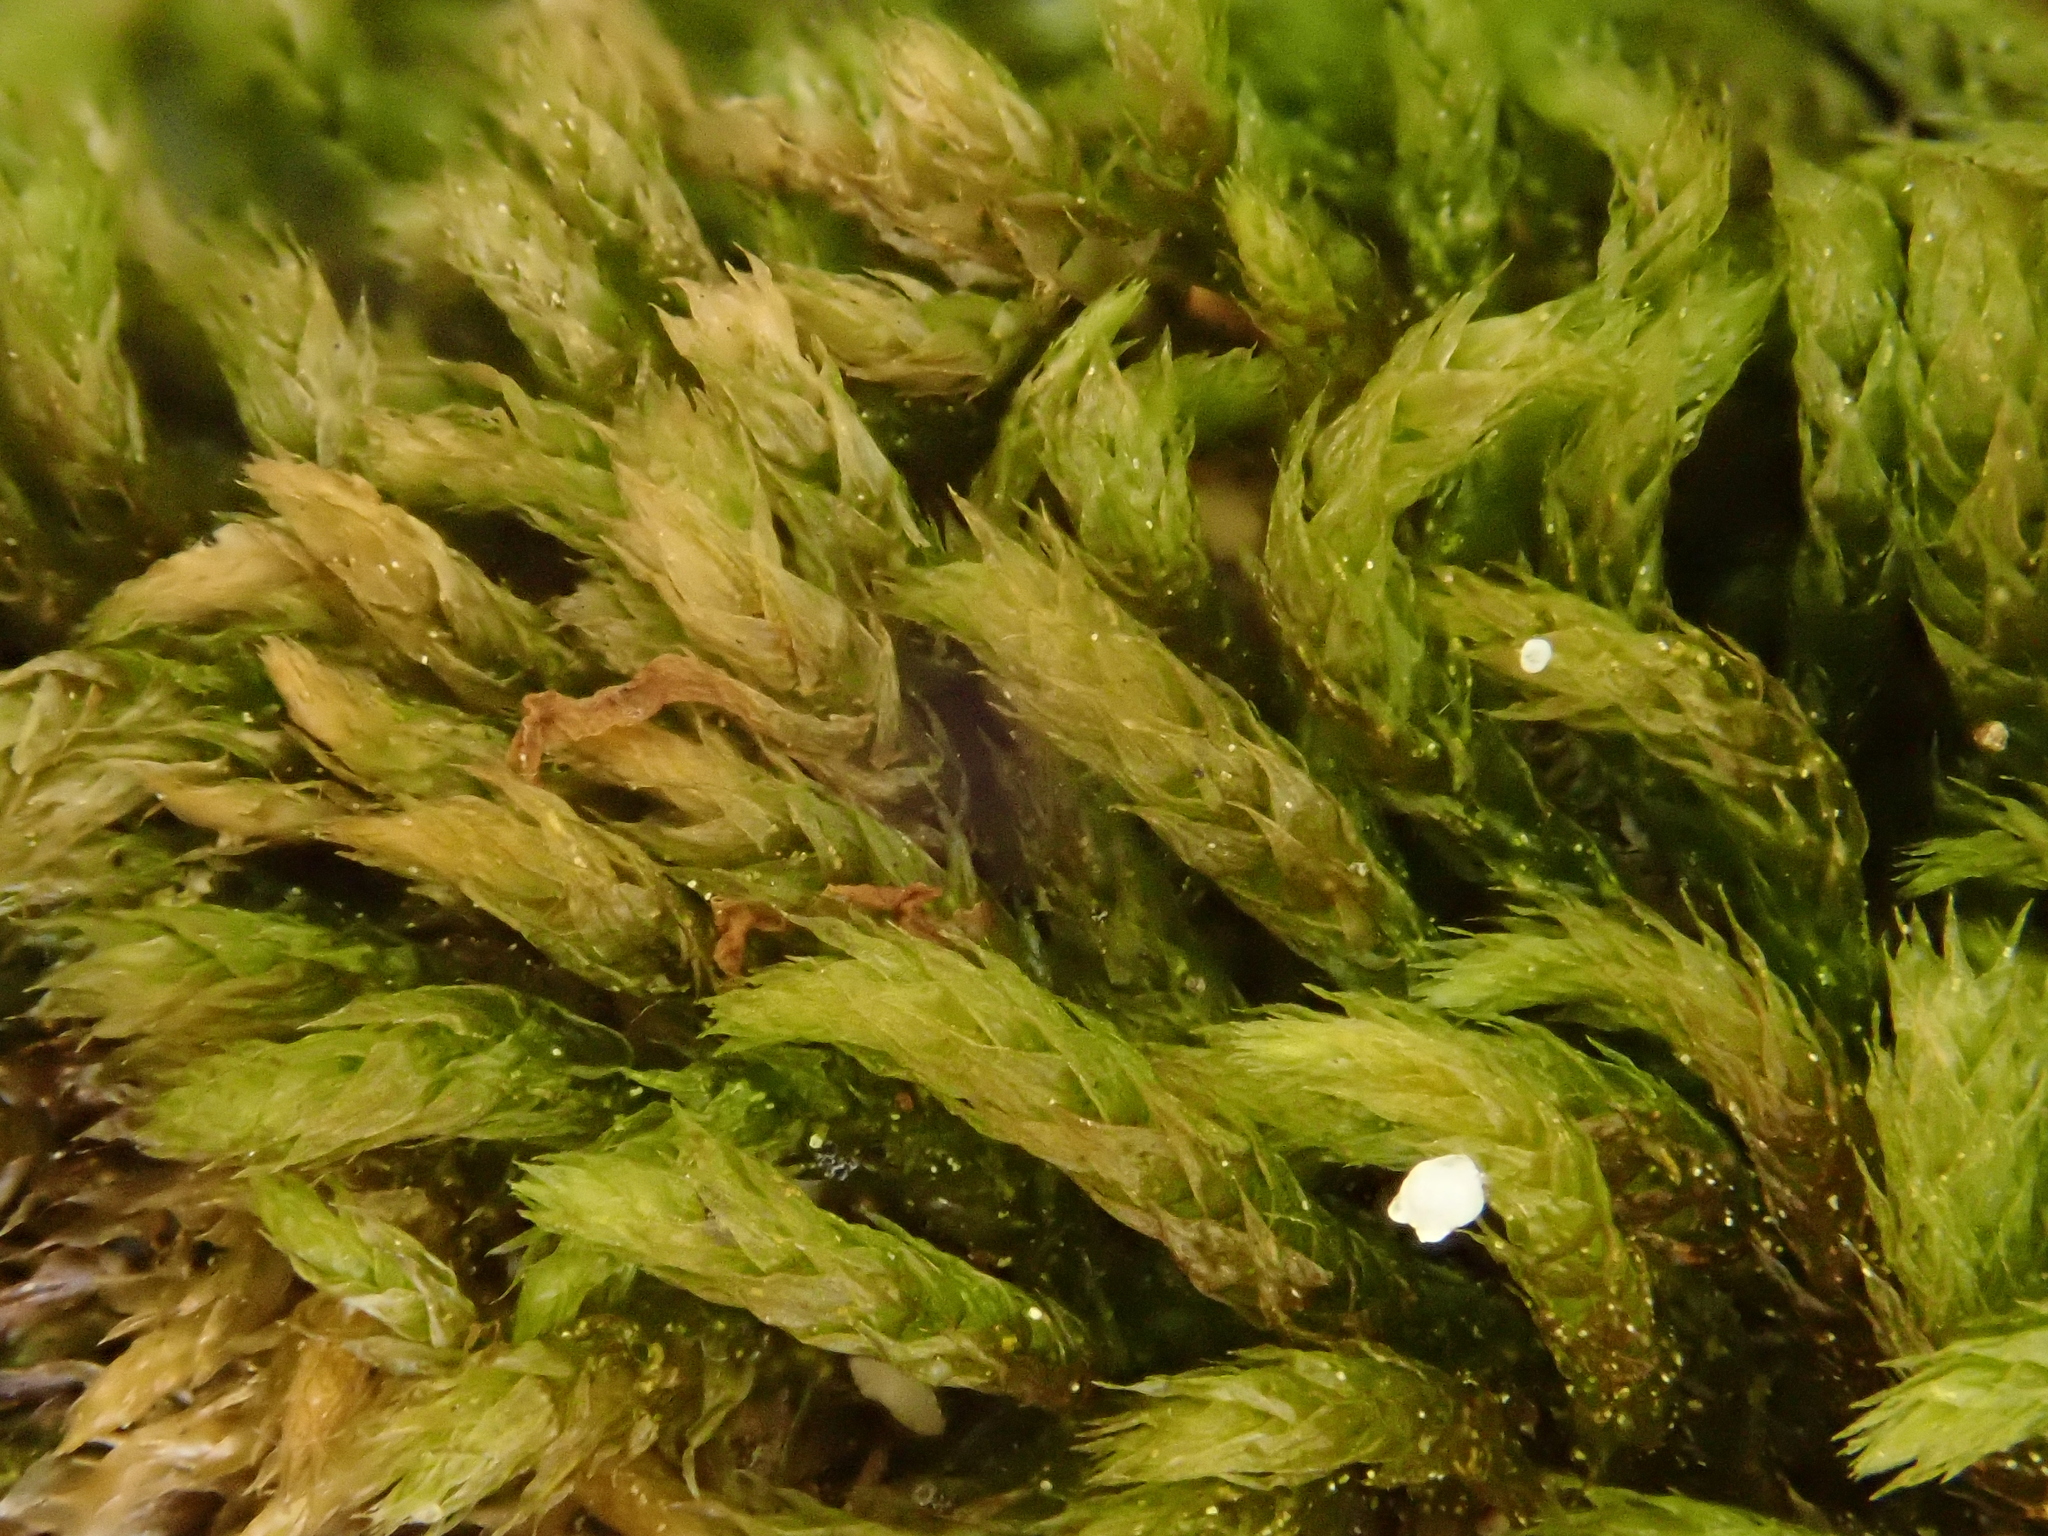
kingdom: Plantae
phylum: Bryophyta
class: Bryopsida
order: Hypnales
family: Brachytheciaceae
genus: Plasteurhynchium
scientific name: Plasteurhynchium striatulum
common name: Lesser striated feather-moss
